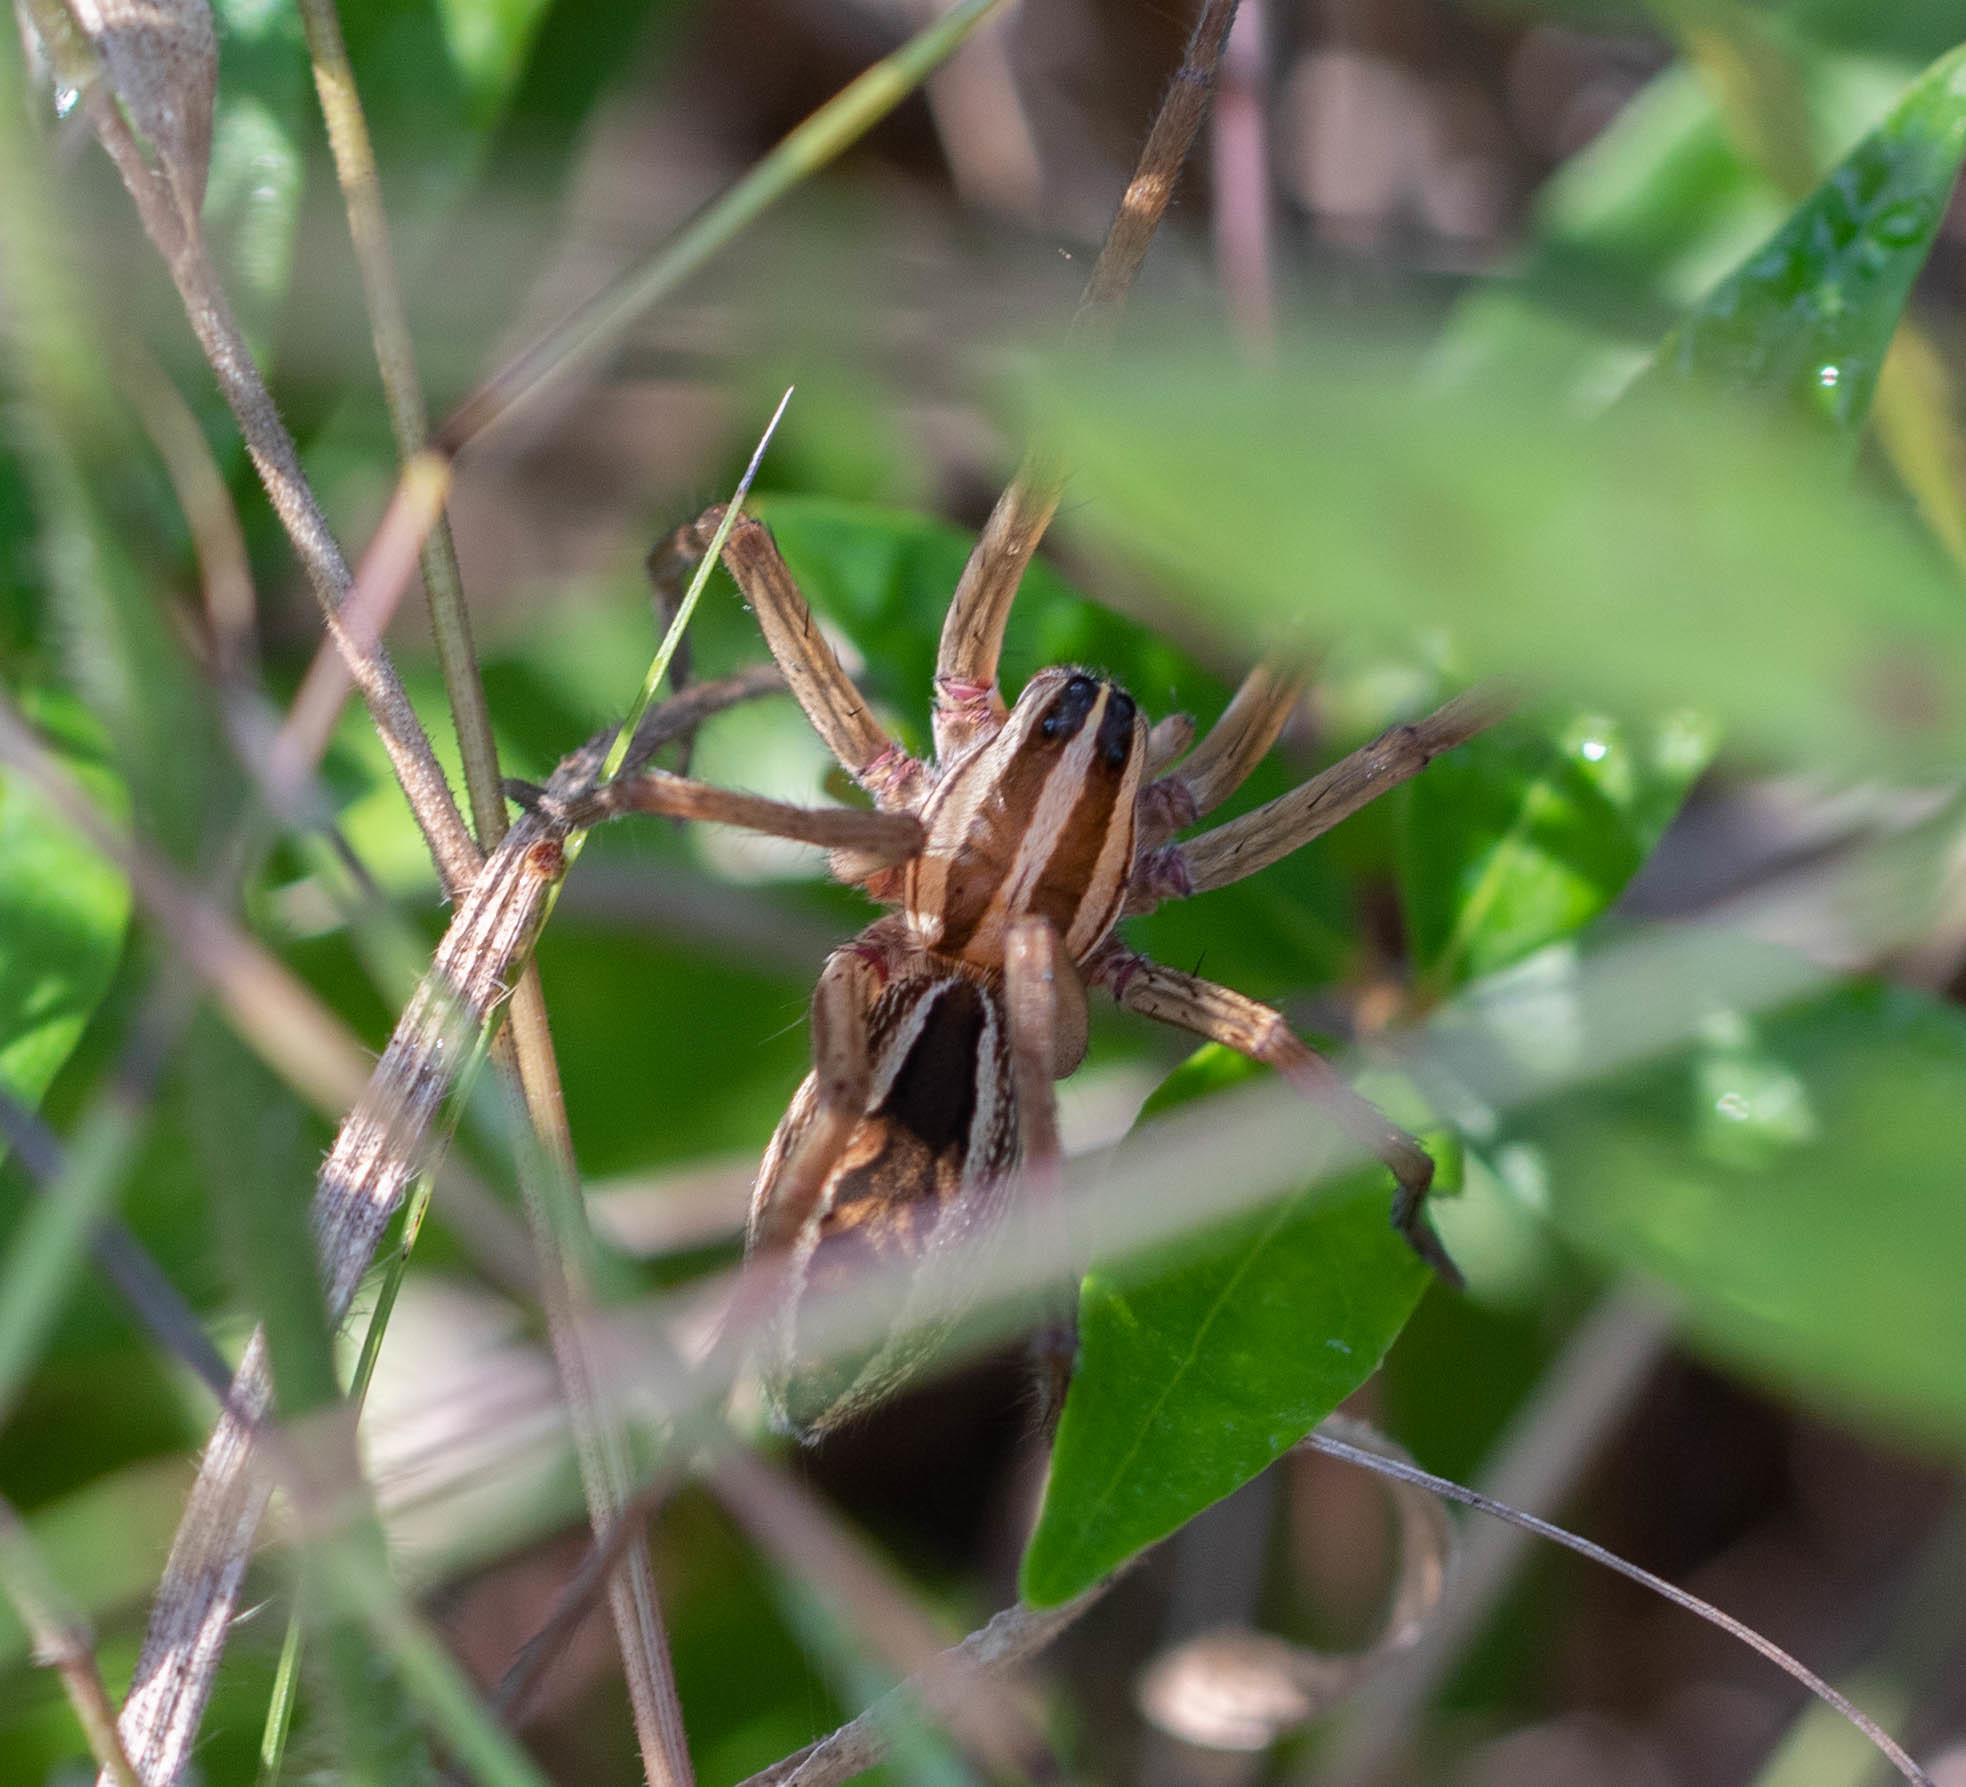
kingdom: Animalia
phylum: Arthropoda
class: Arachnida
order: Araneae
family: Lycosidae
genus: Rabidosa
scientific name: Rabidosa rabida
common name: Rabid wolf spider
